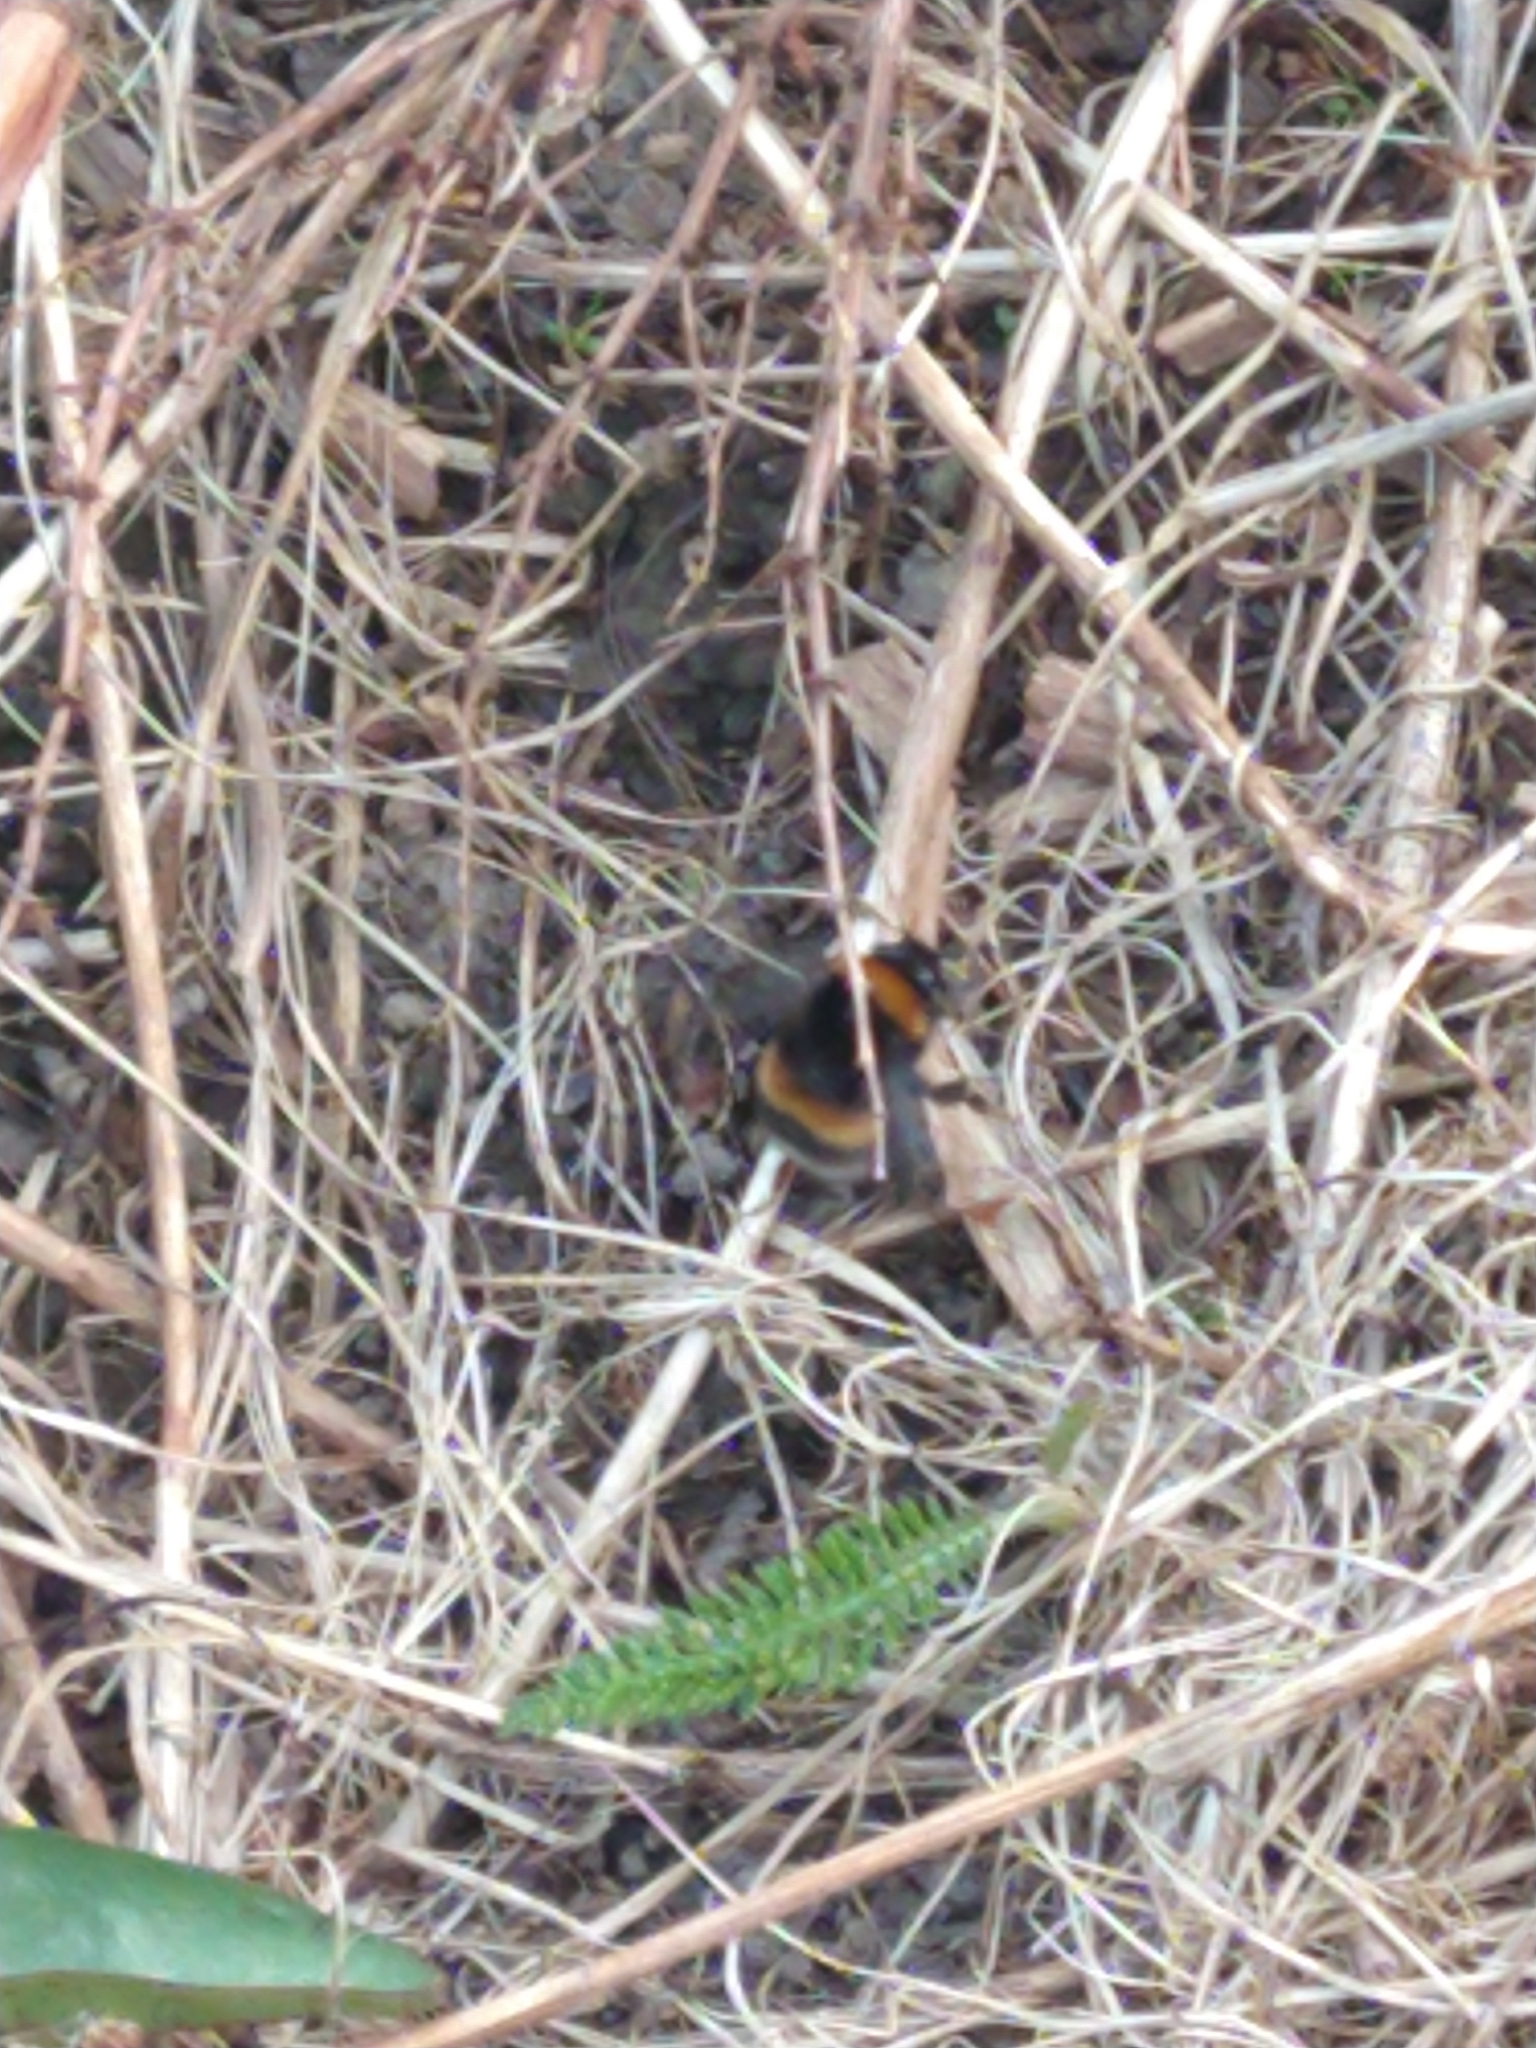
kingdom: Animalia
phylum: Arthropoda
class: Insecta
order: Hymenoptera
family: Apidae
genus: Bombus
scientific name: Bombus terrestris
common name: Buff-tailed bumblebee
